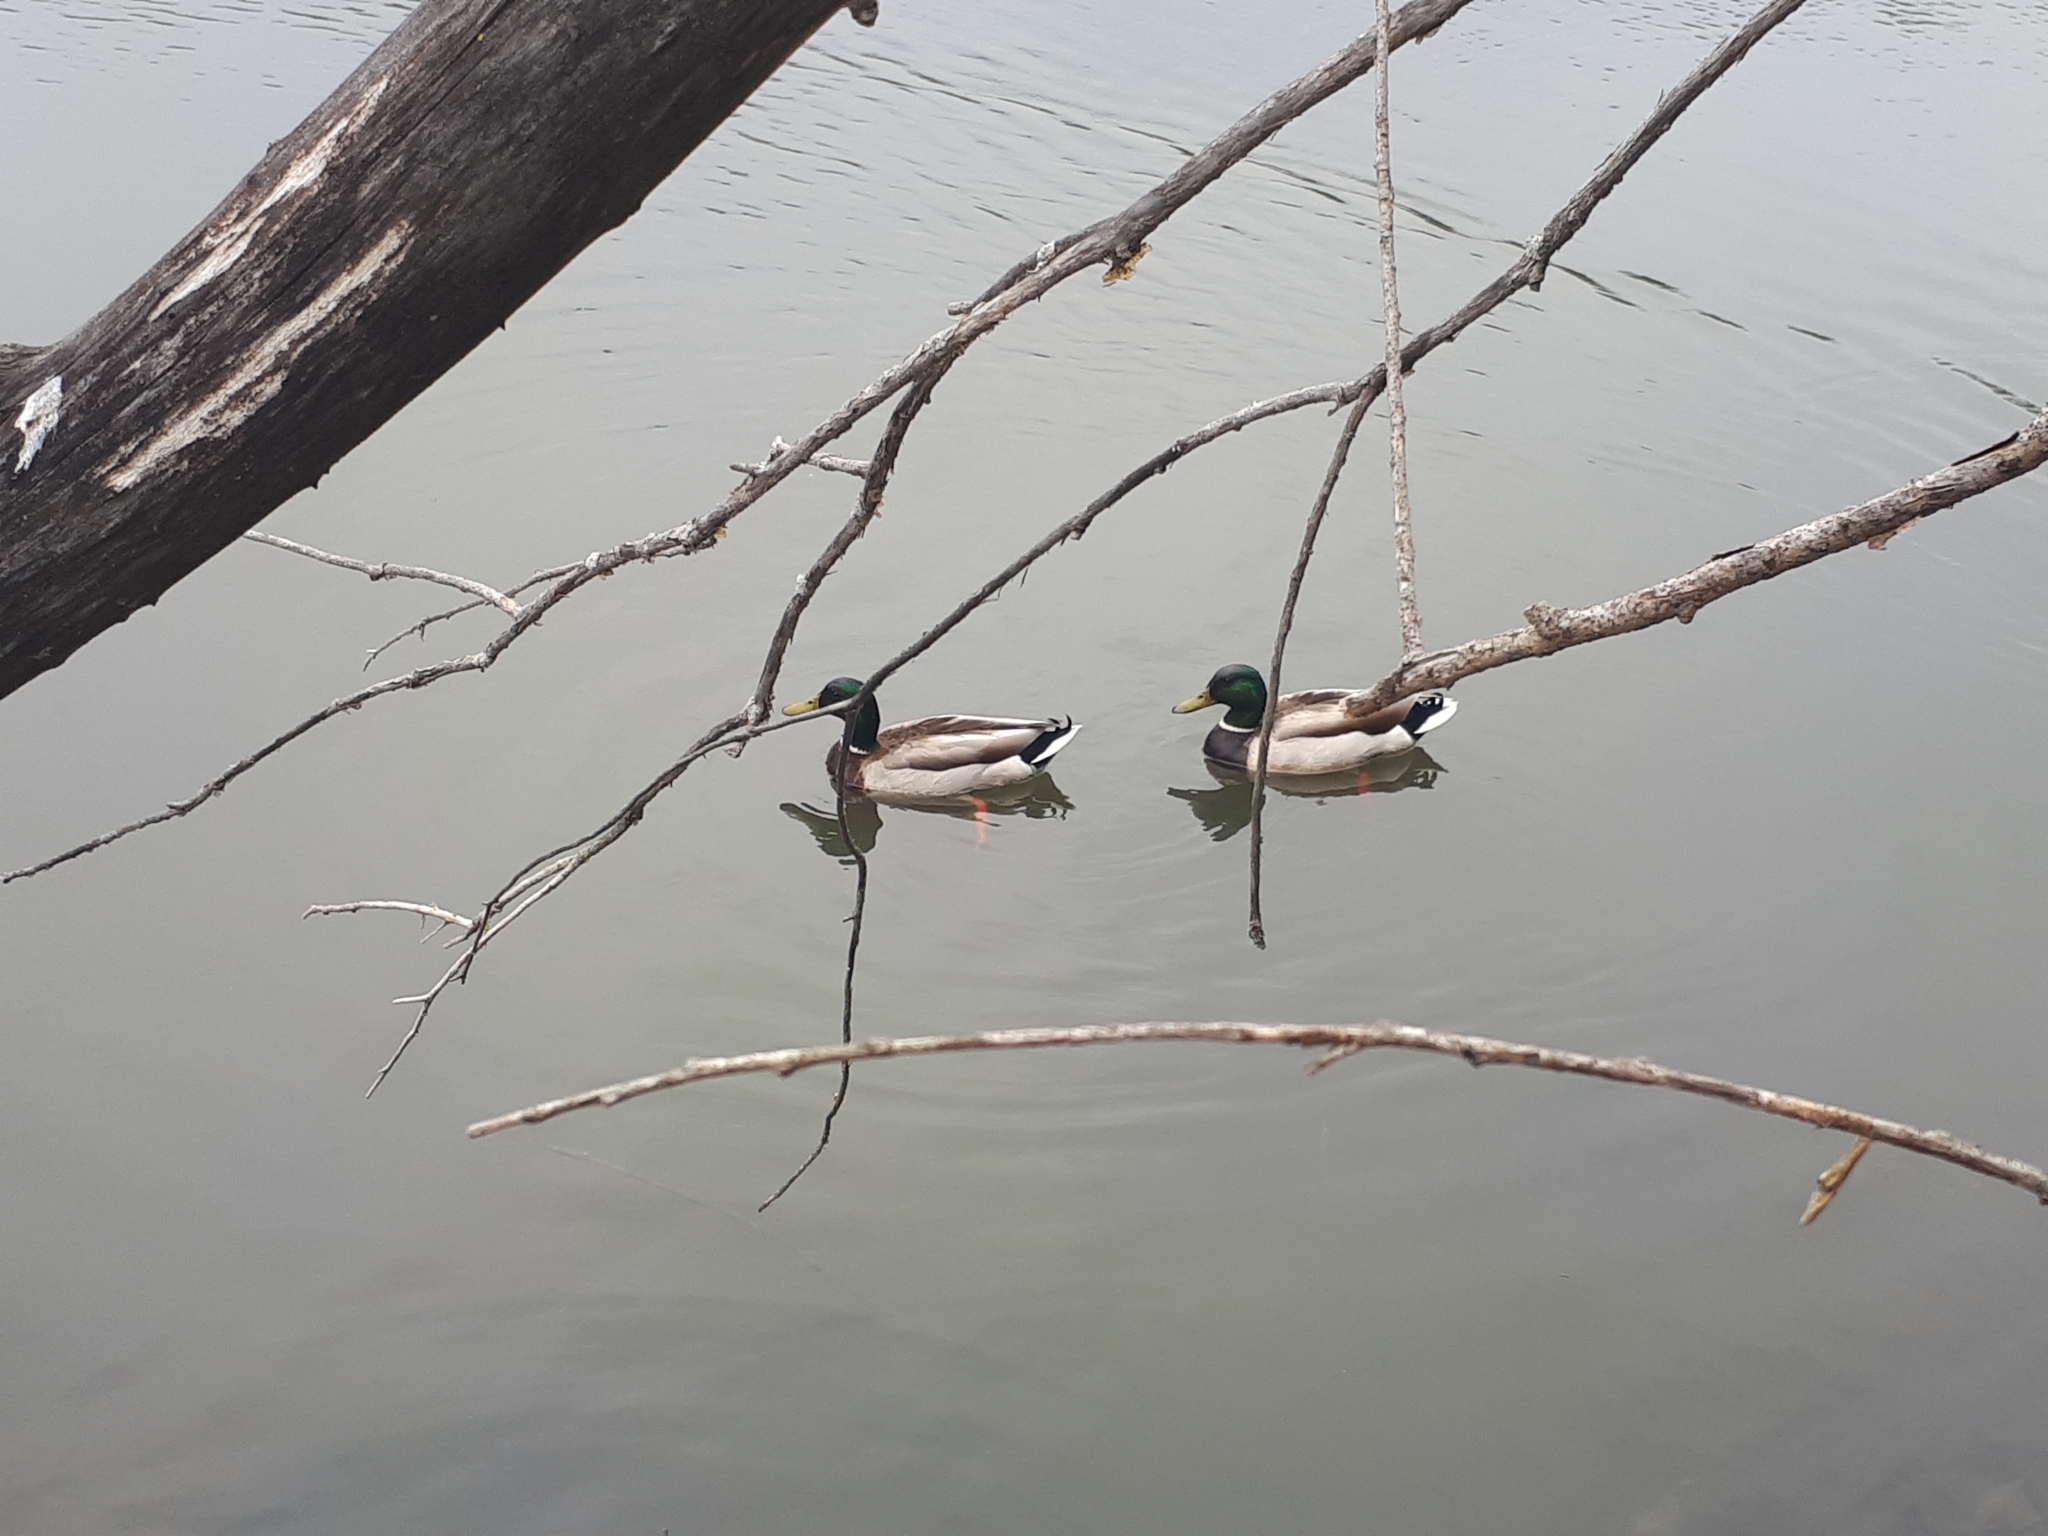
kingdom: Animalia
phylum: Chordata
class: Aves
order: Anseriformes
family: Anatidae
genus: Anas
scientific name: Anas platyrhynchos
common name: Mallard
